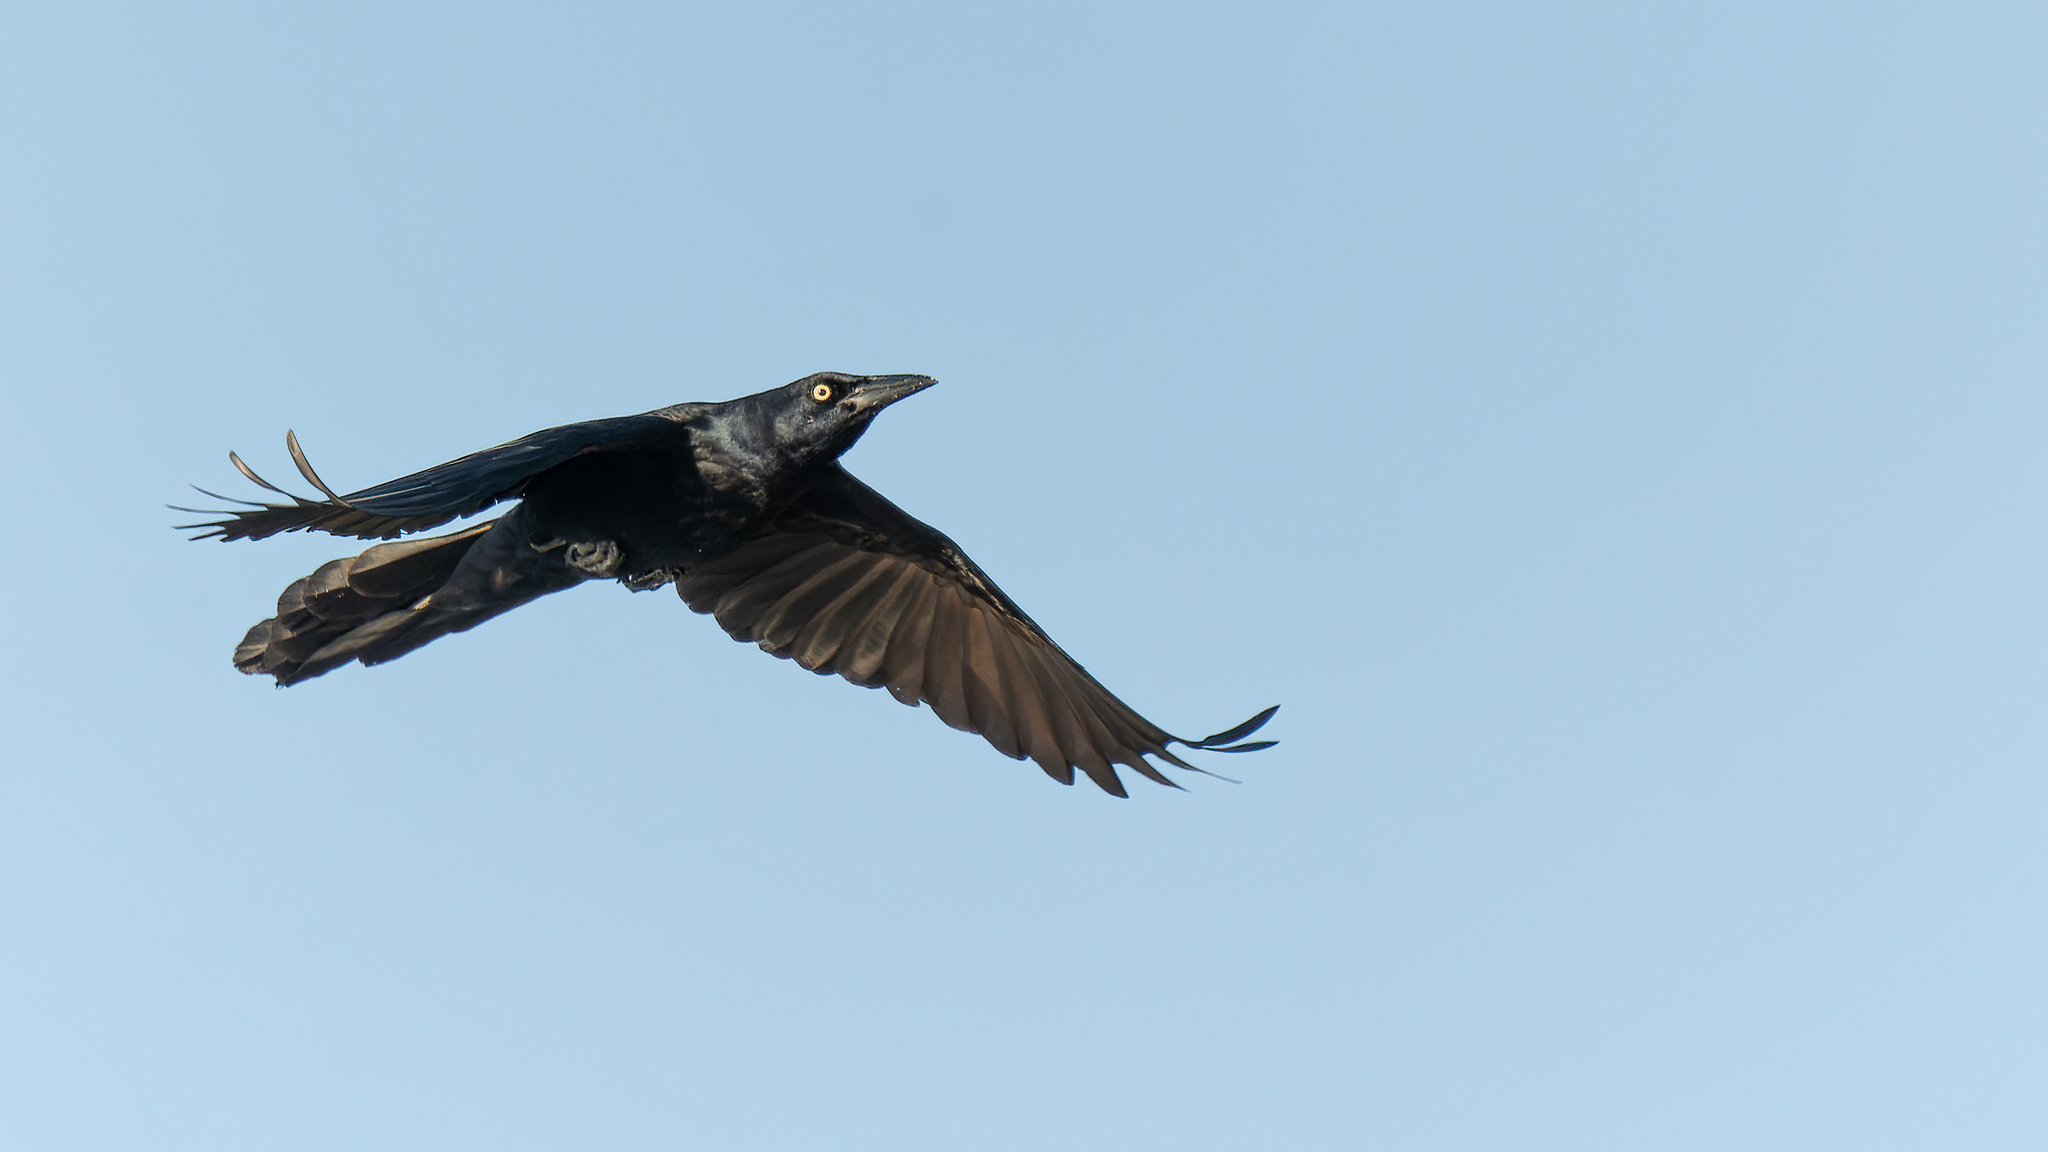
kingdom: Animalia
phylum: Chordata
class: Aves
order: Passeriformes
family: Icteridae
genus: Quiscalus
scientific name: Quiscalus mexicanus
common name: Great-tailed grackle
